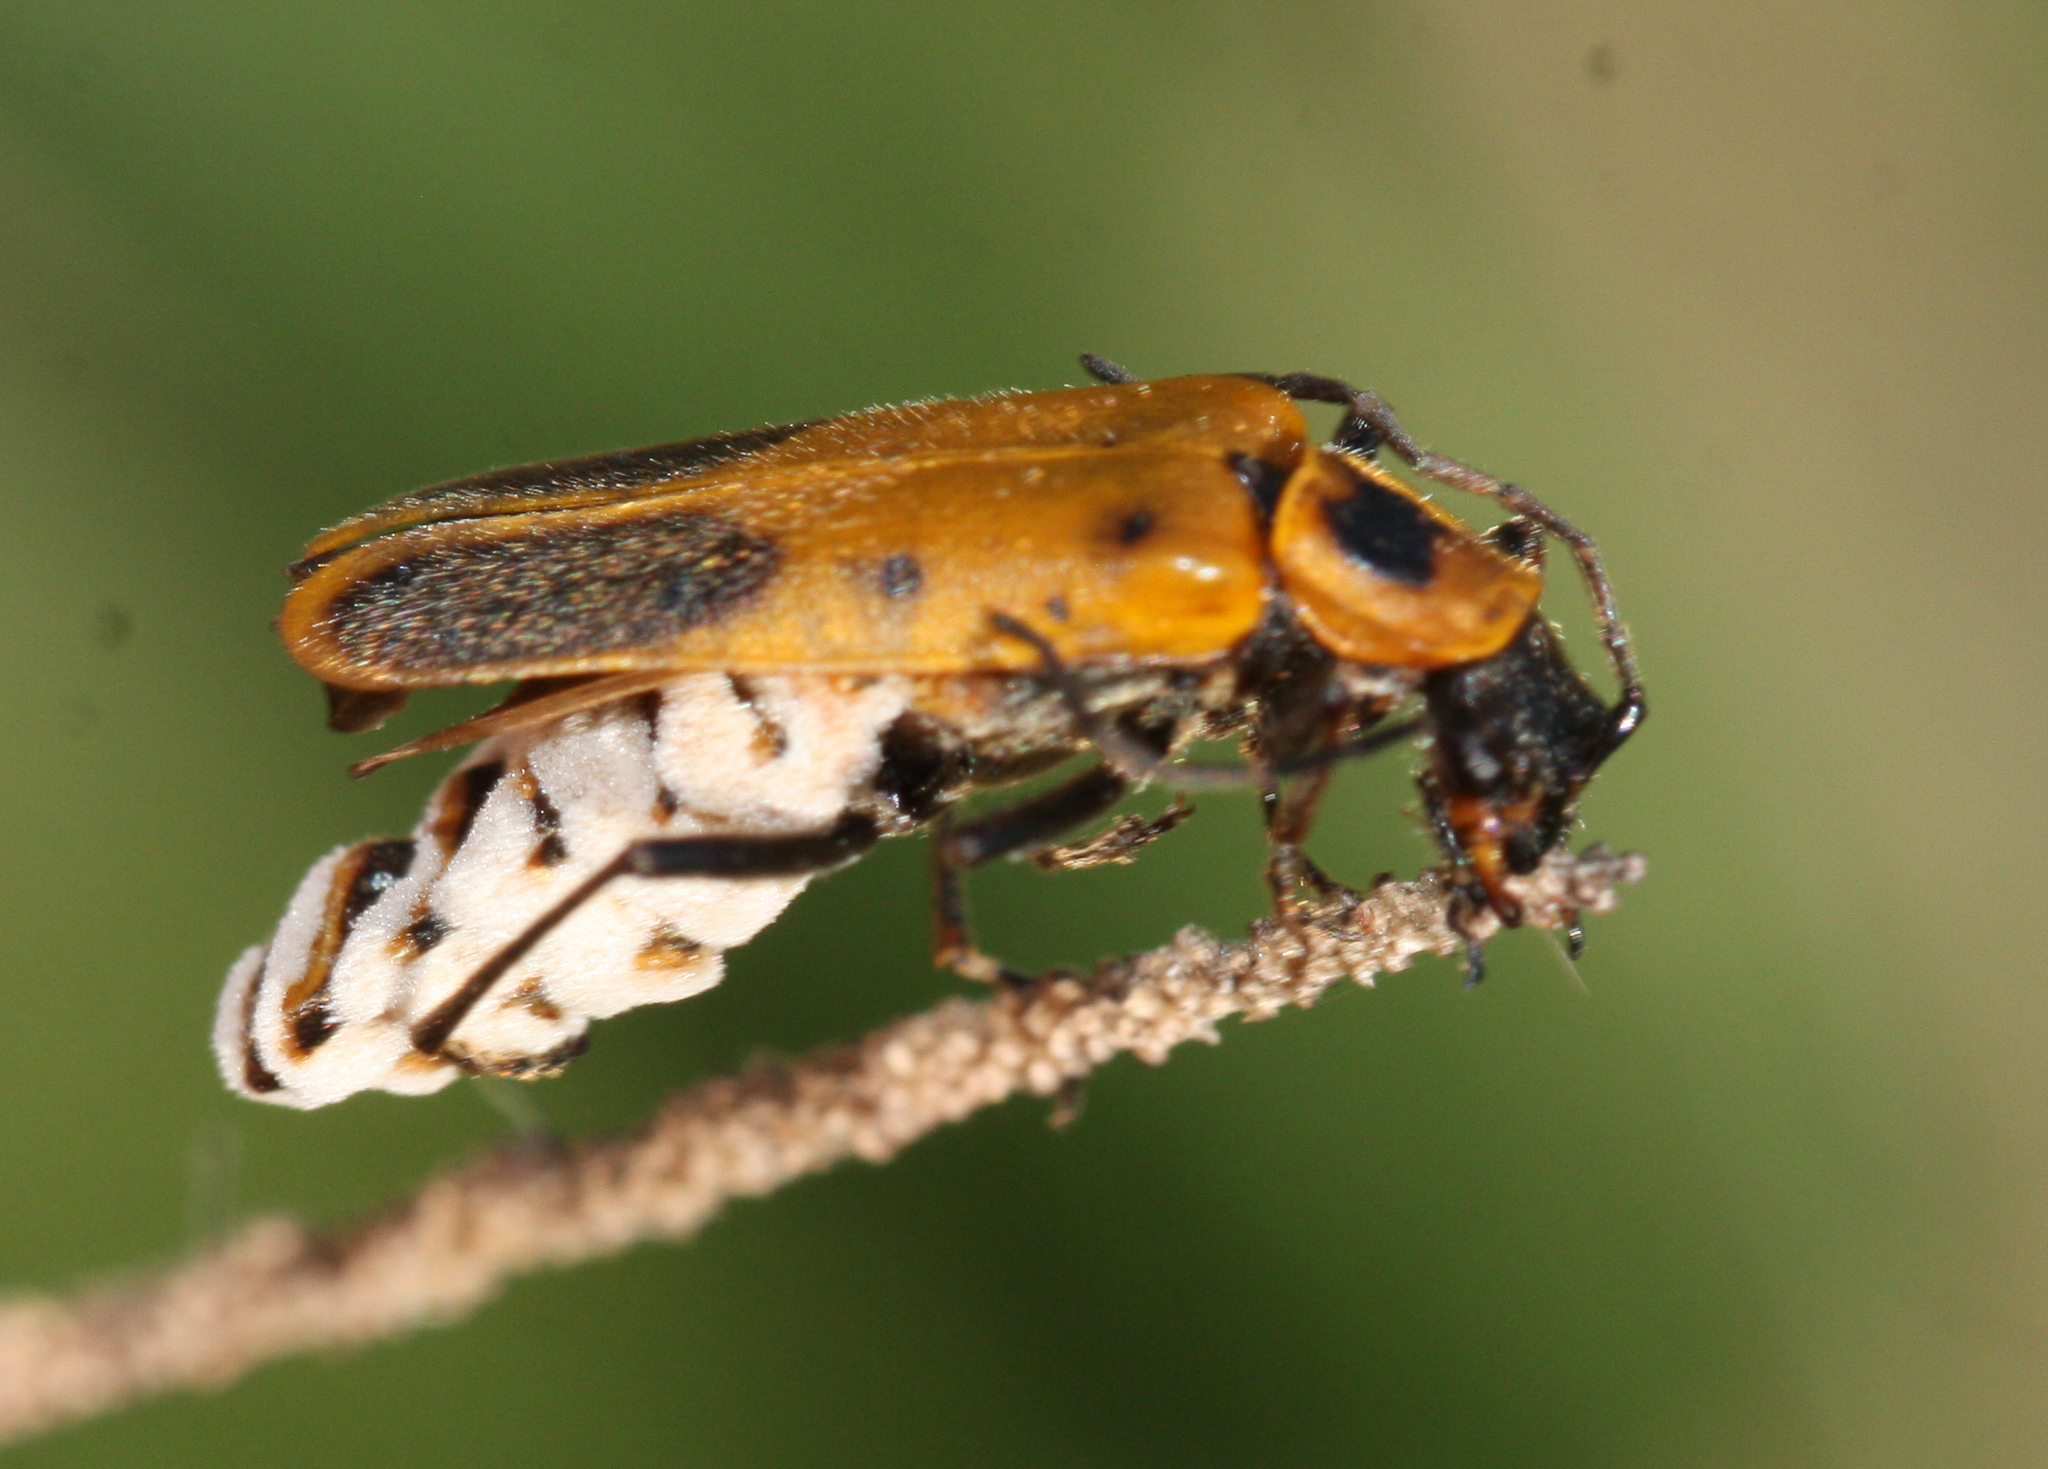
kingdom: Fungi
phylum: Entomophthoromycota
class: Entomophthoromycetes
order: Entomophthorales
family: Entomophthoraceae
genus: Eryniopsis
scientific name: Eryniopsis lampyridarum
